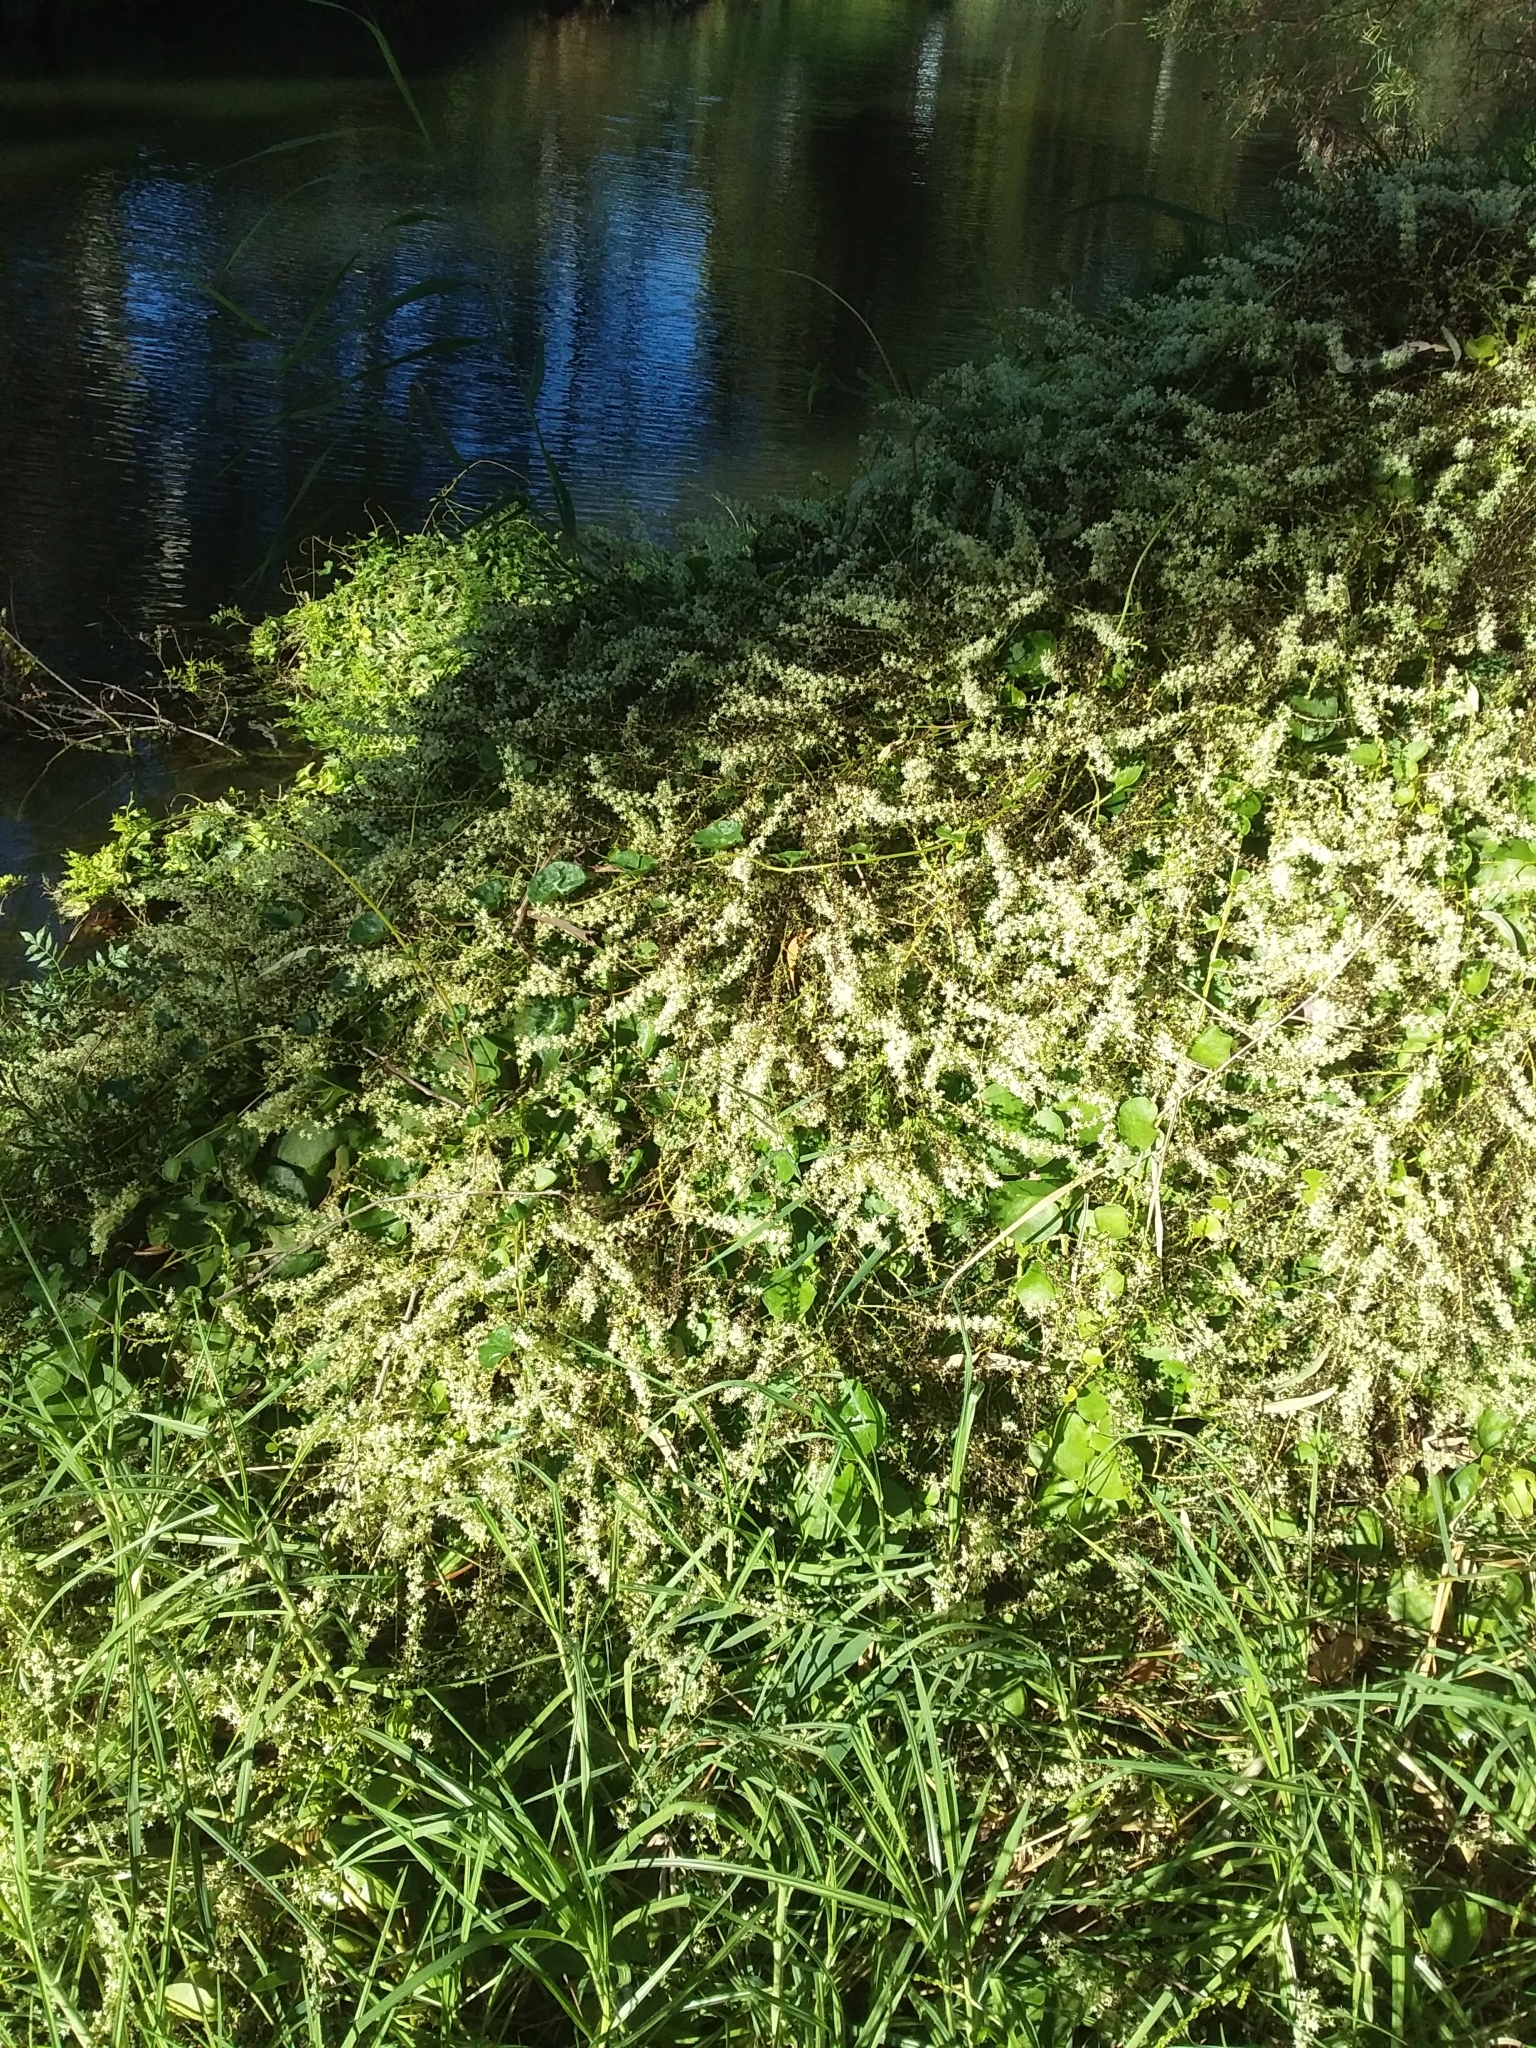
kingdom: Plantae
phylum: Tracheophyta
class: Magnoliopsida
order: Caryophyllales
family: Basellaceae
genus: Anredera
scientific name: Anredera cordifolia
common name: Heartleaf madeiravine
